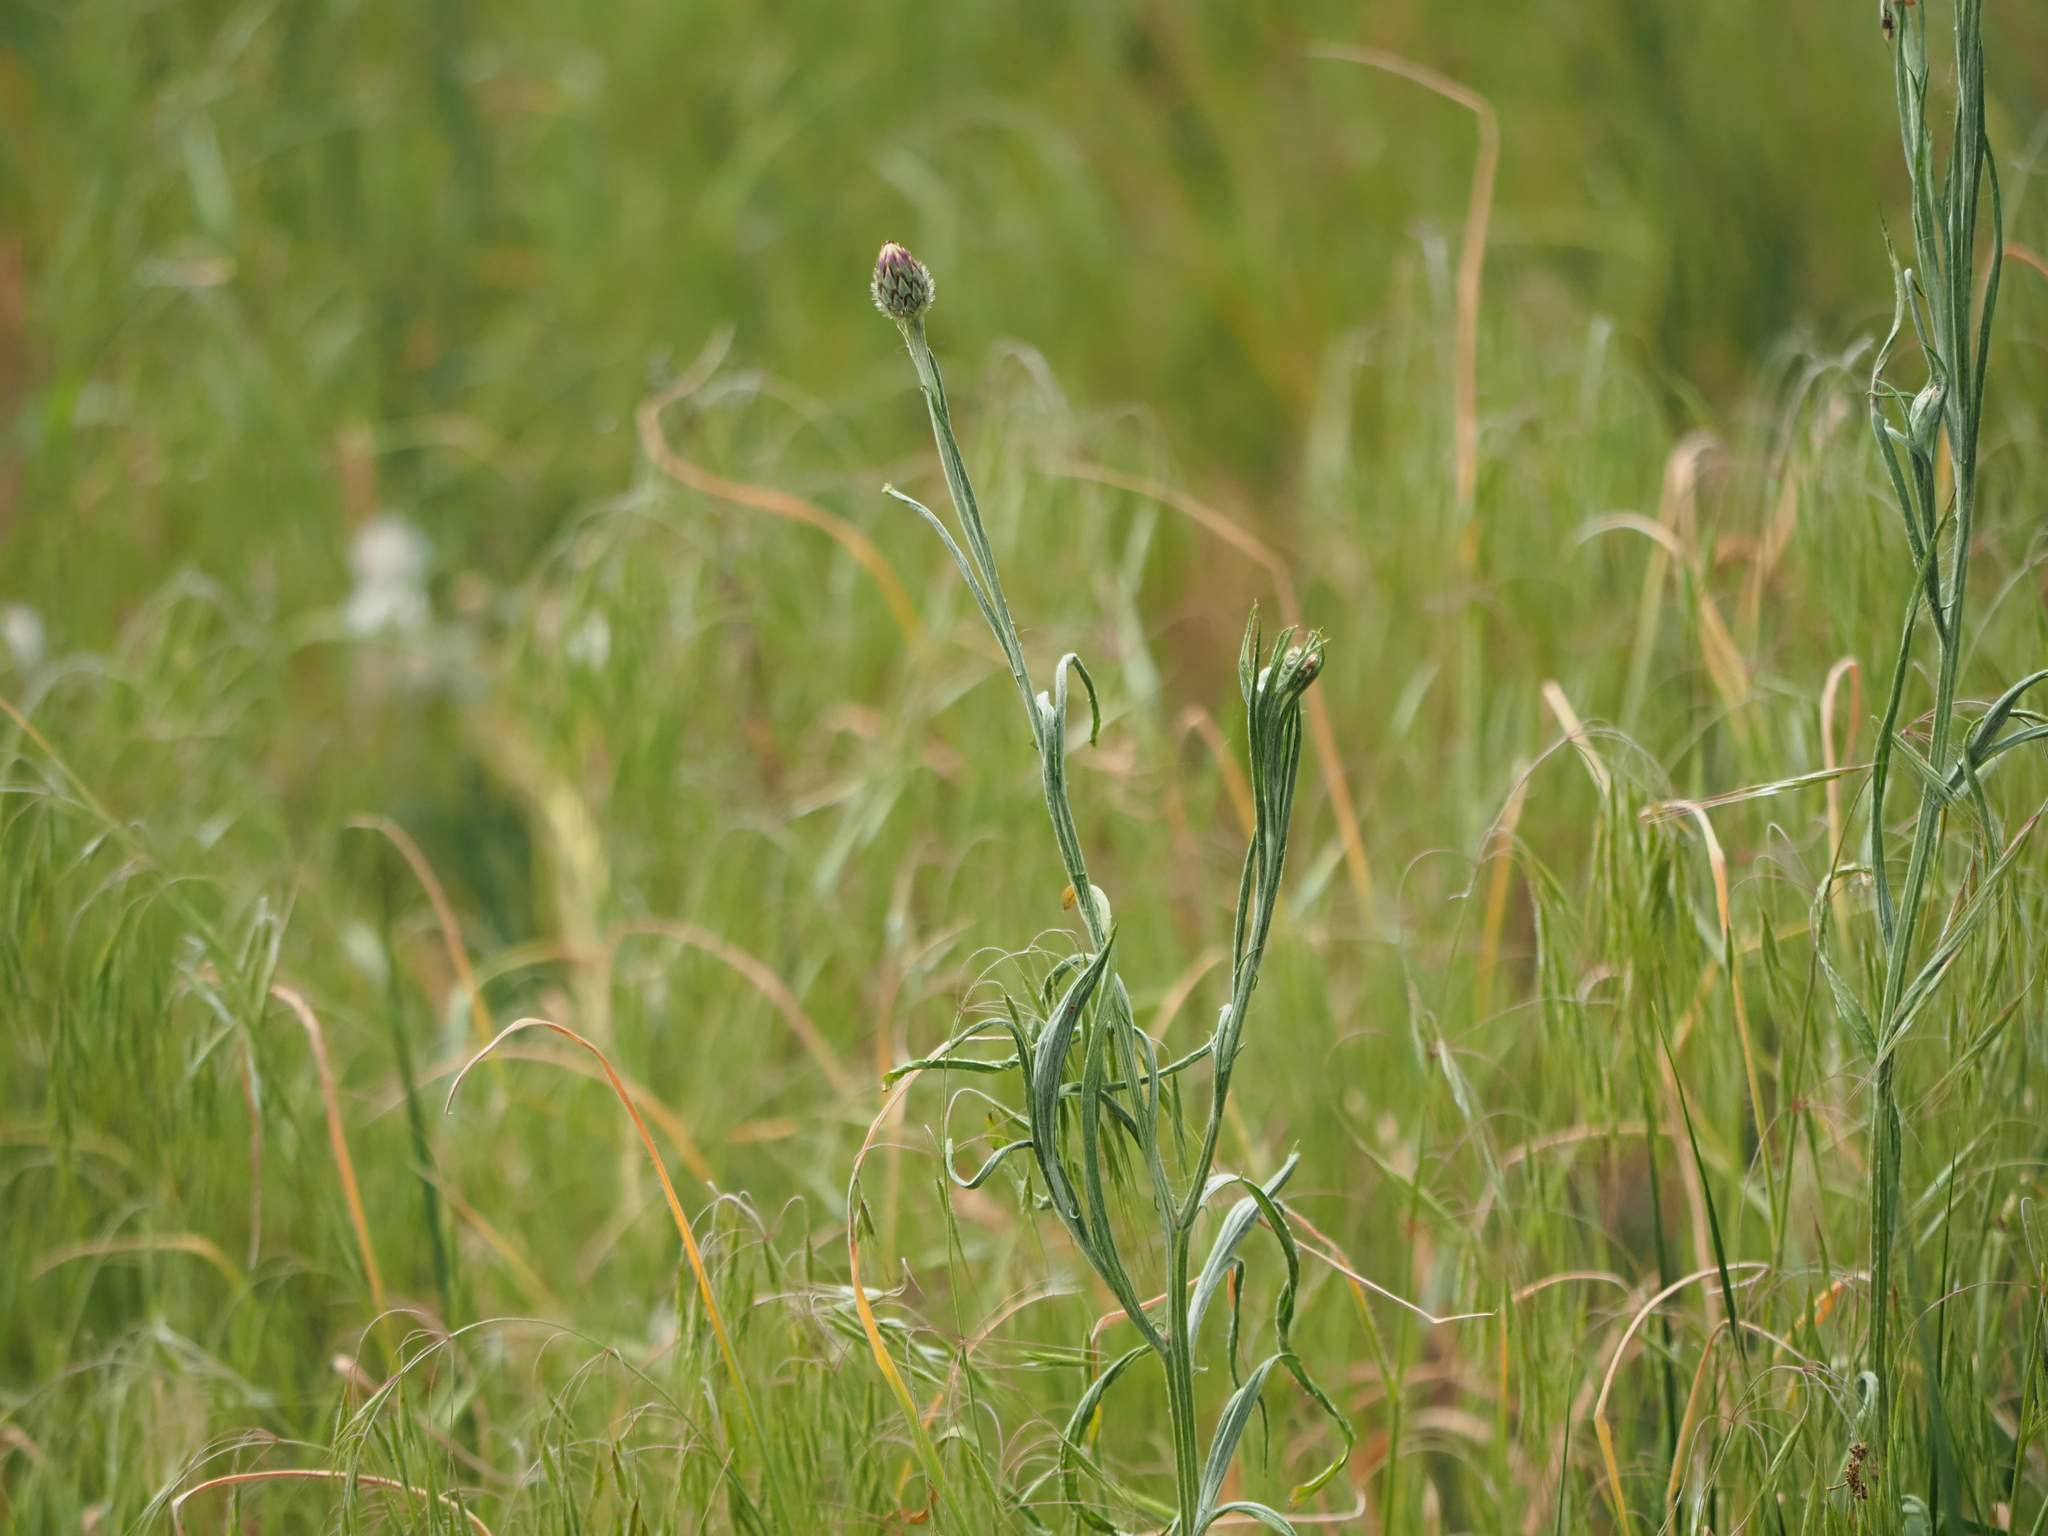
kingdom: Plantae
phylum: Tracheophyta
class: Magnoliopsida
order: Asterales
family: Asteraceae
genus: Centaurea
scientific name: Centaurea cyanus
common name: Cornflower
